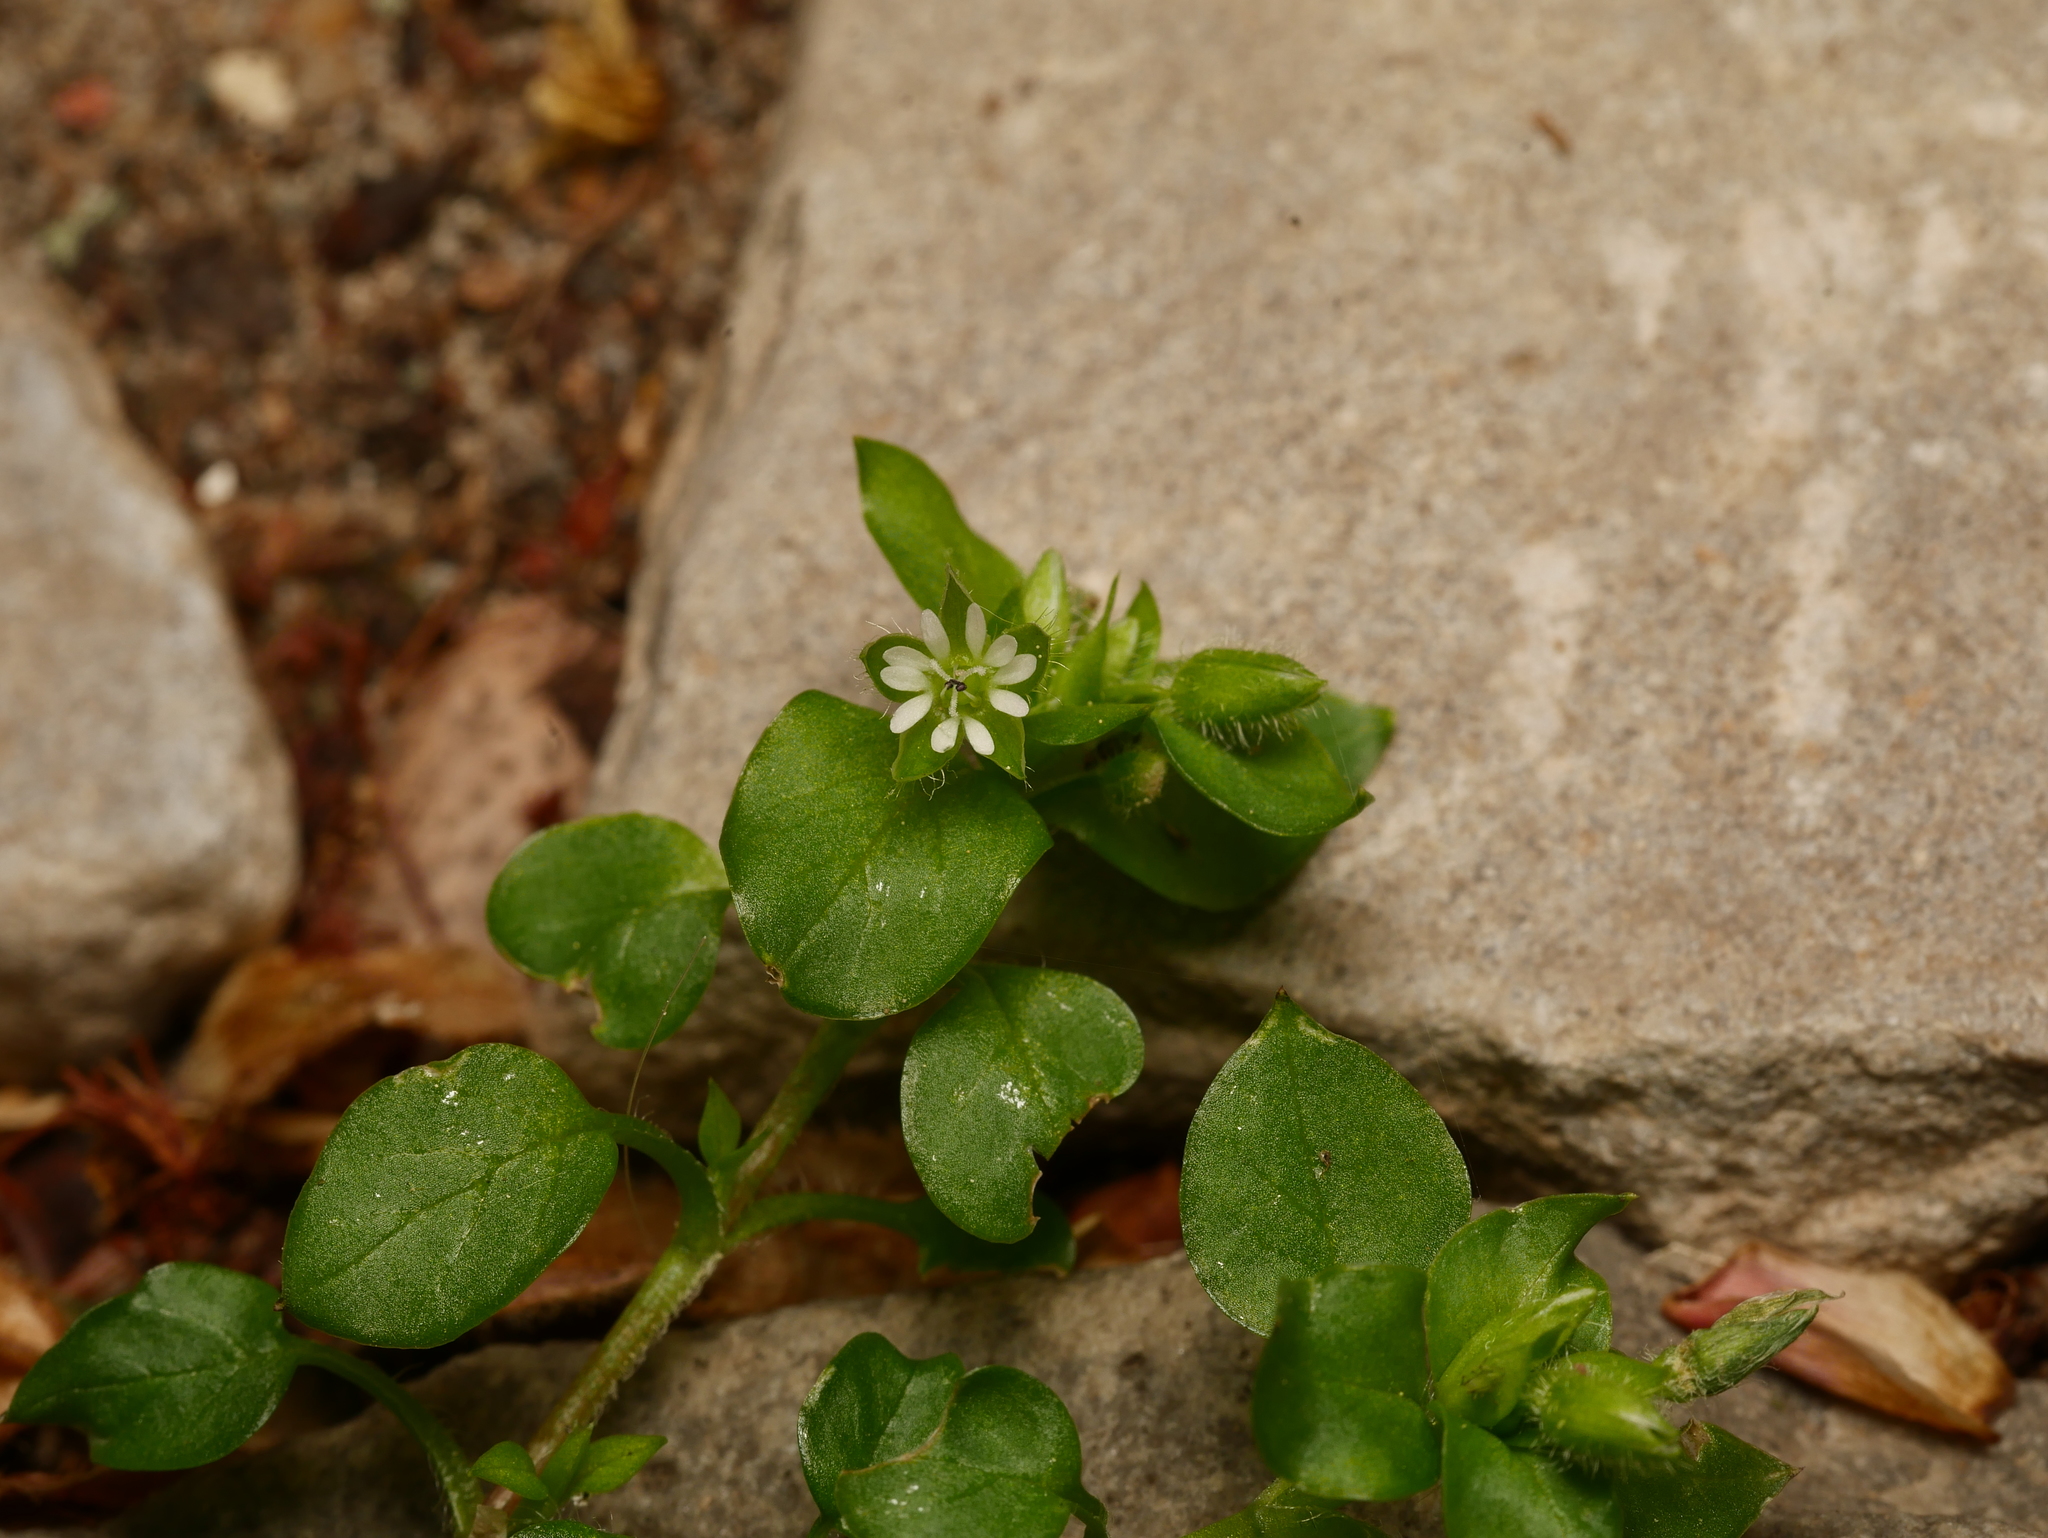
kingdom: Plantae
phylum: Tracheophyta
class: Magnoliopsida
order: Caryophyllales
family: Caryophyllaceae
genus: Stellaria
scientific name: Stellaria media
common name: Common chickweed
